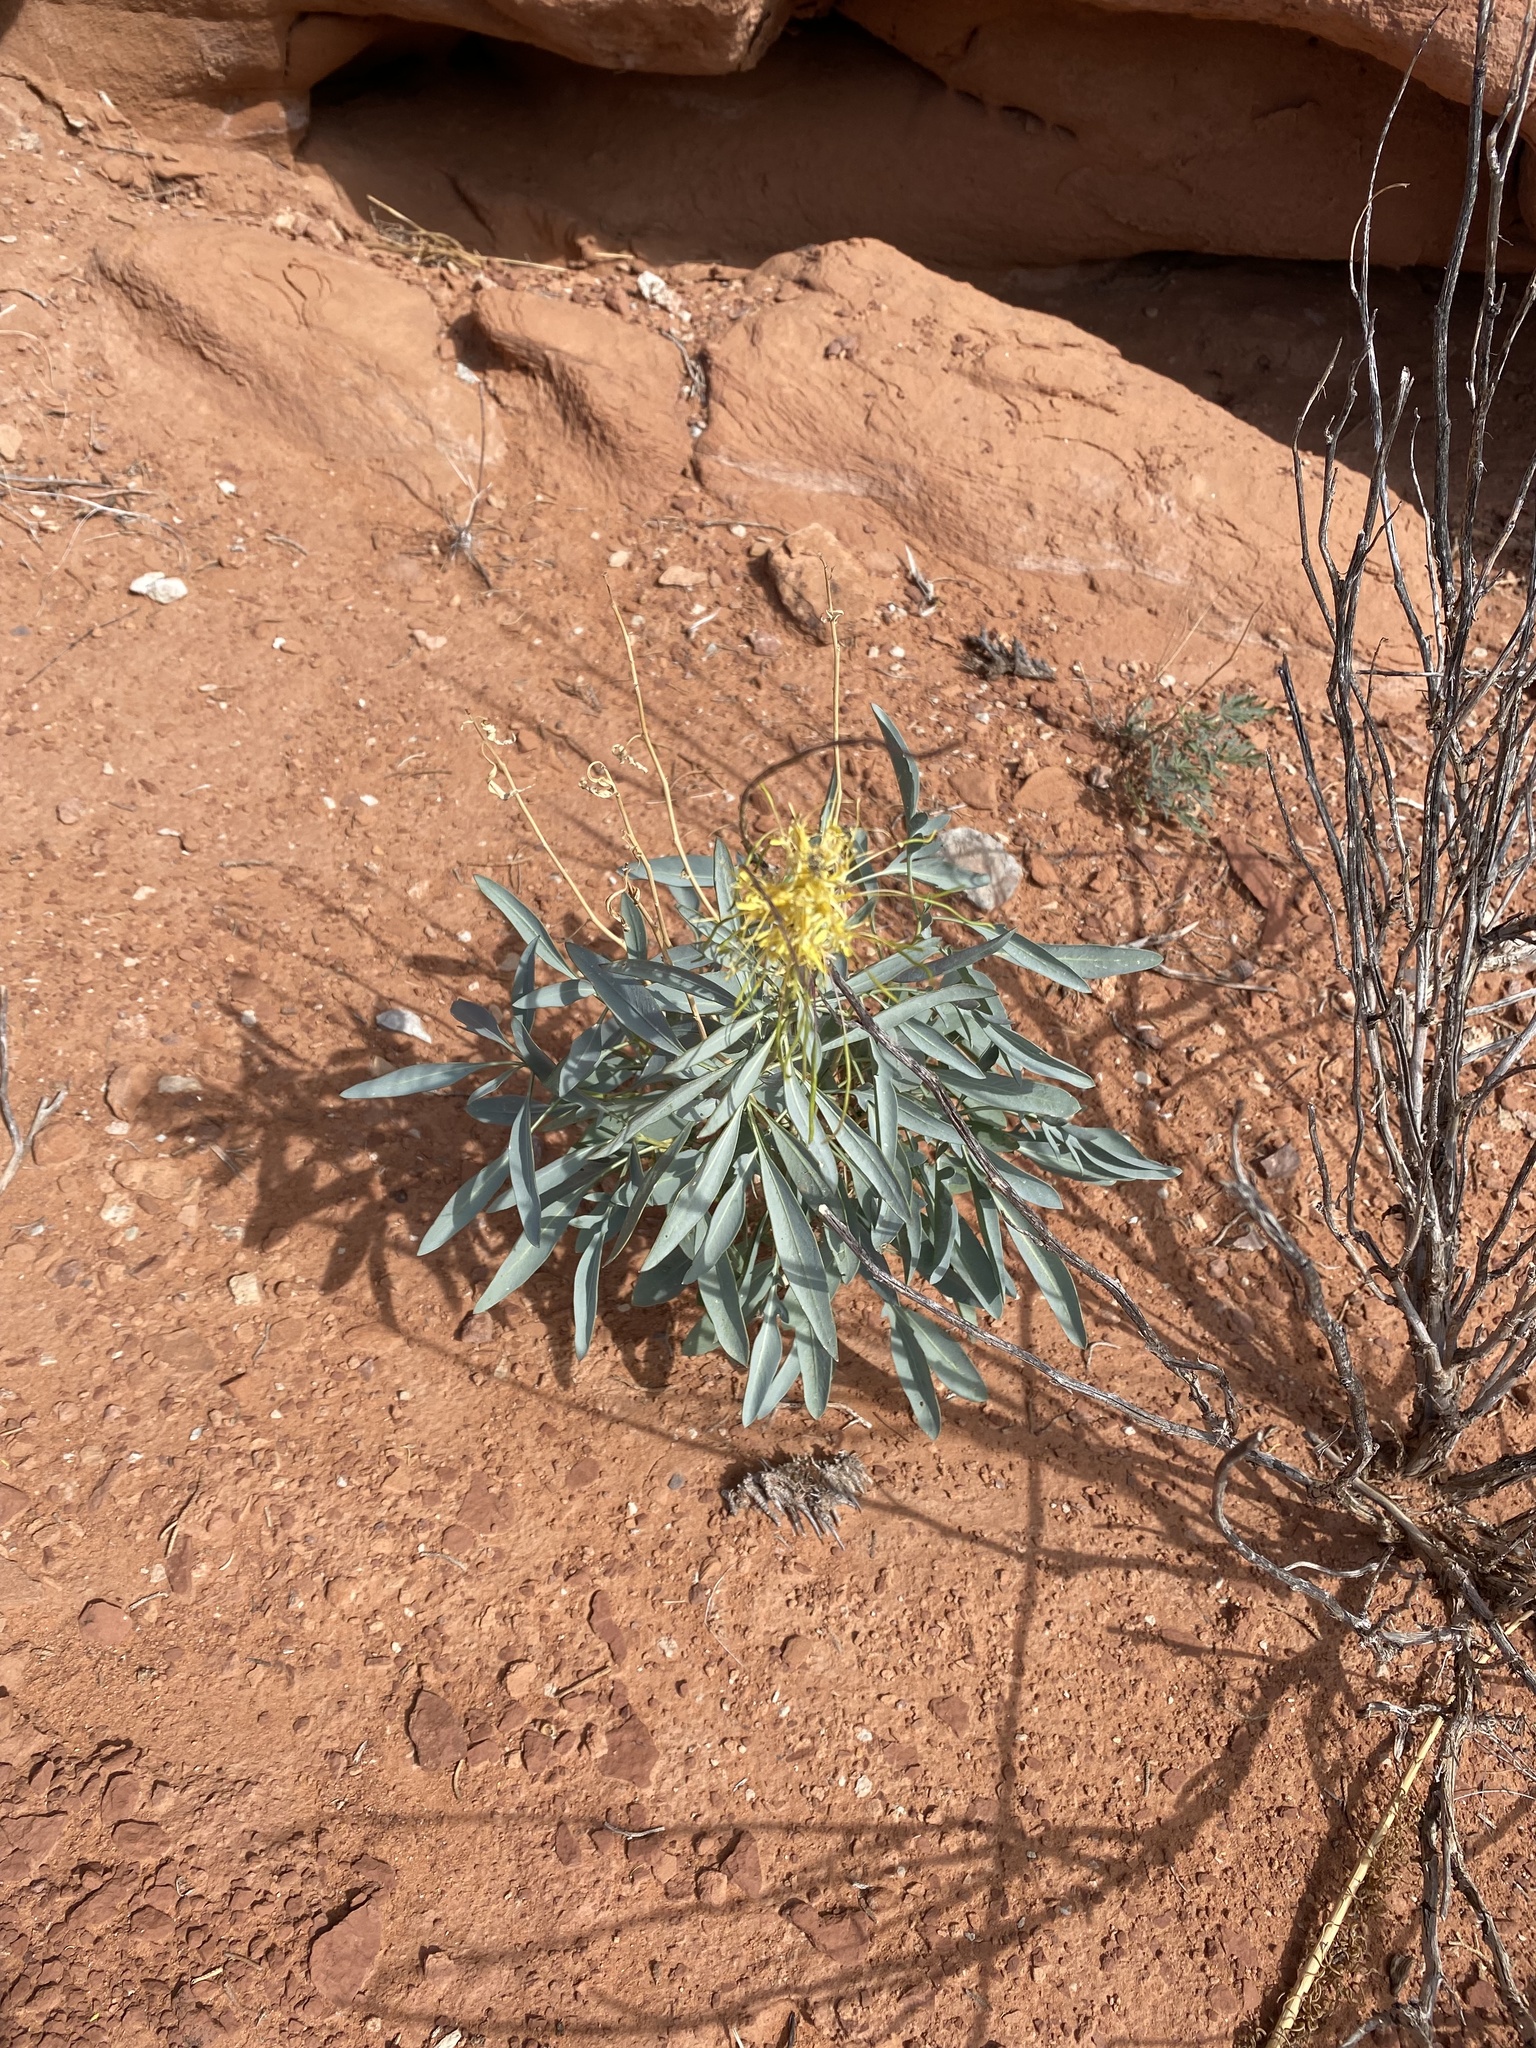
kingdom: Plantae
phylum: Tracheophyta
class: Magnoliopsida
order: Brassicales
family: Brassicaceae
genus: Stanleya
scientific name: Stanleya pinnata
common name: Prince's-plume
